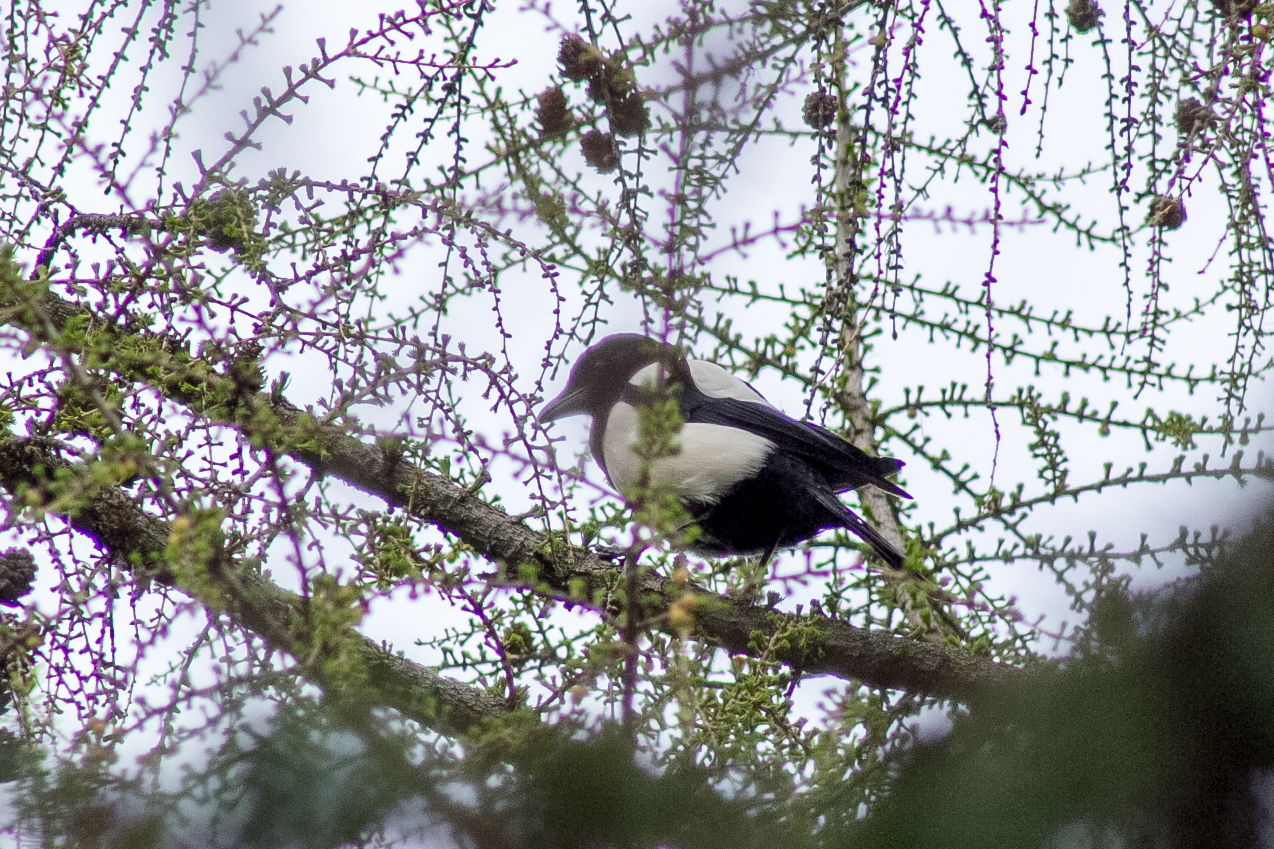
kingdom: Animalia
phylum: Chordata
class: Aves
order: Passeriformes
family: Corvidae
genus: Pica
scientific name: Pica pica
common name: Eurasian magpie
